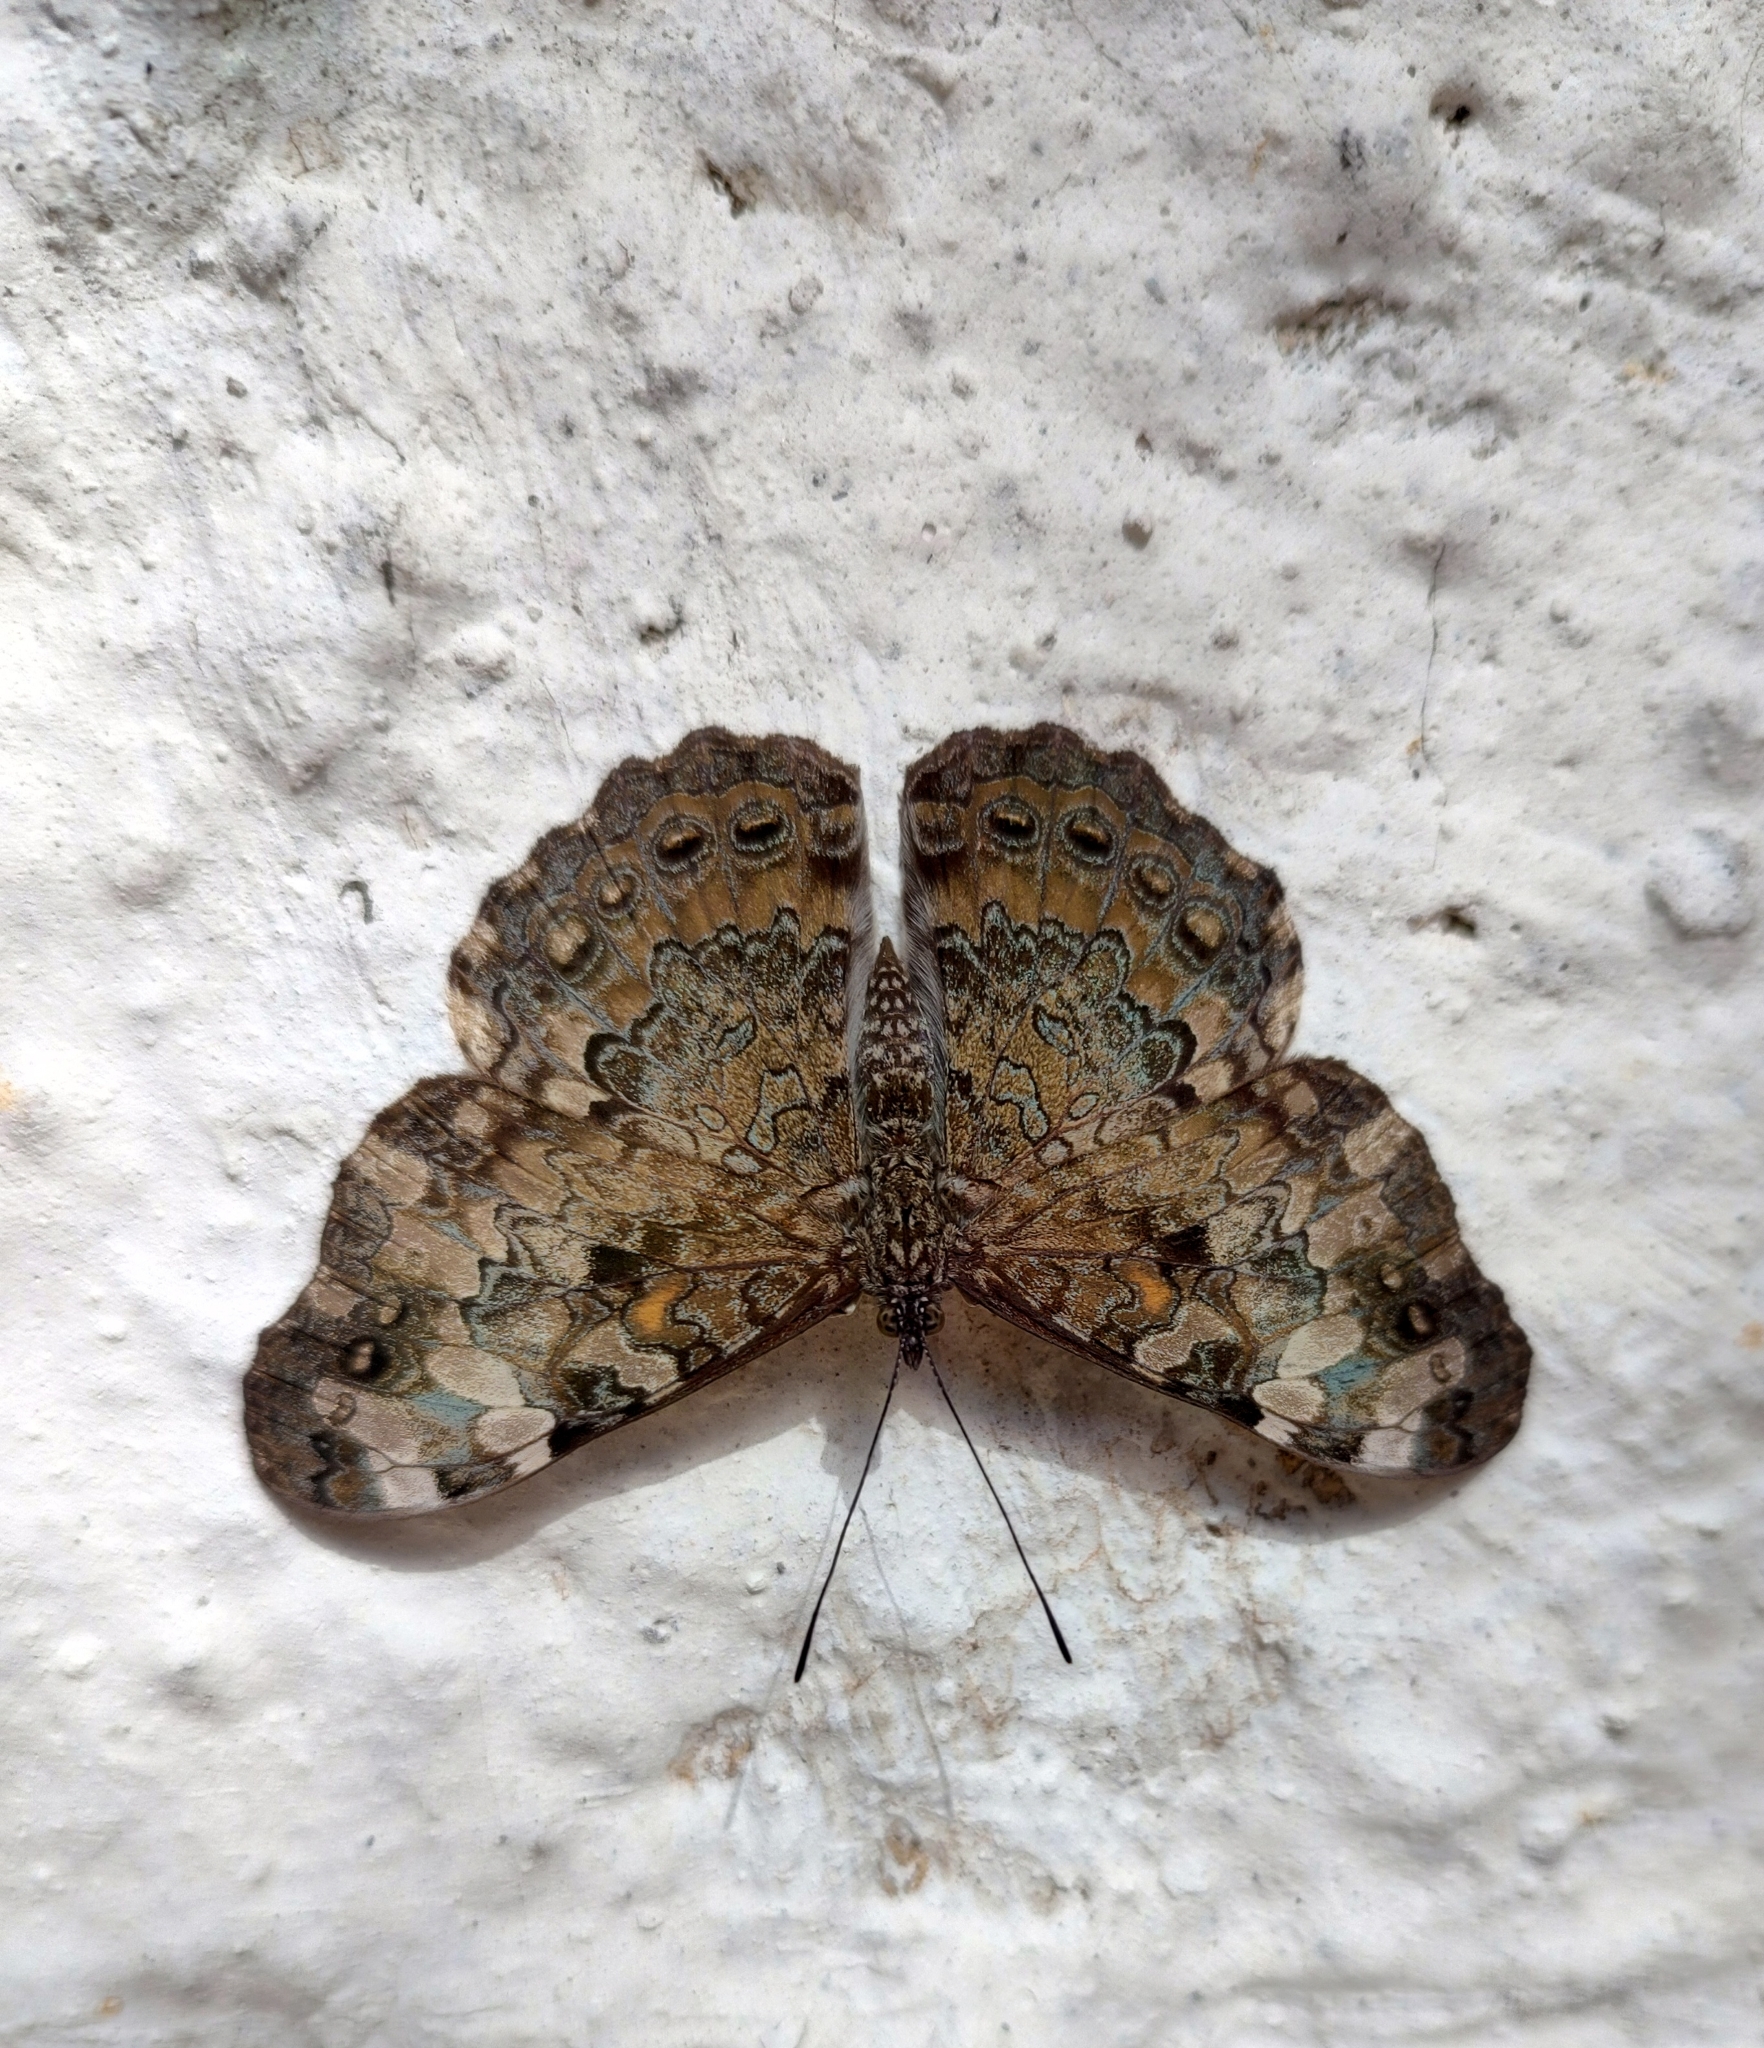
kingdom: Animalia
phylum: Arthropoda
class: Insecta
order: Lepidoptera
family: Nymphalidae
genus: Hamadryas
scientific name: Hamadryas epinome
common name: Epinome cracker
